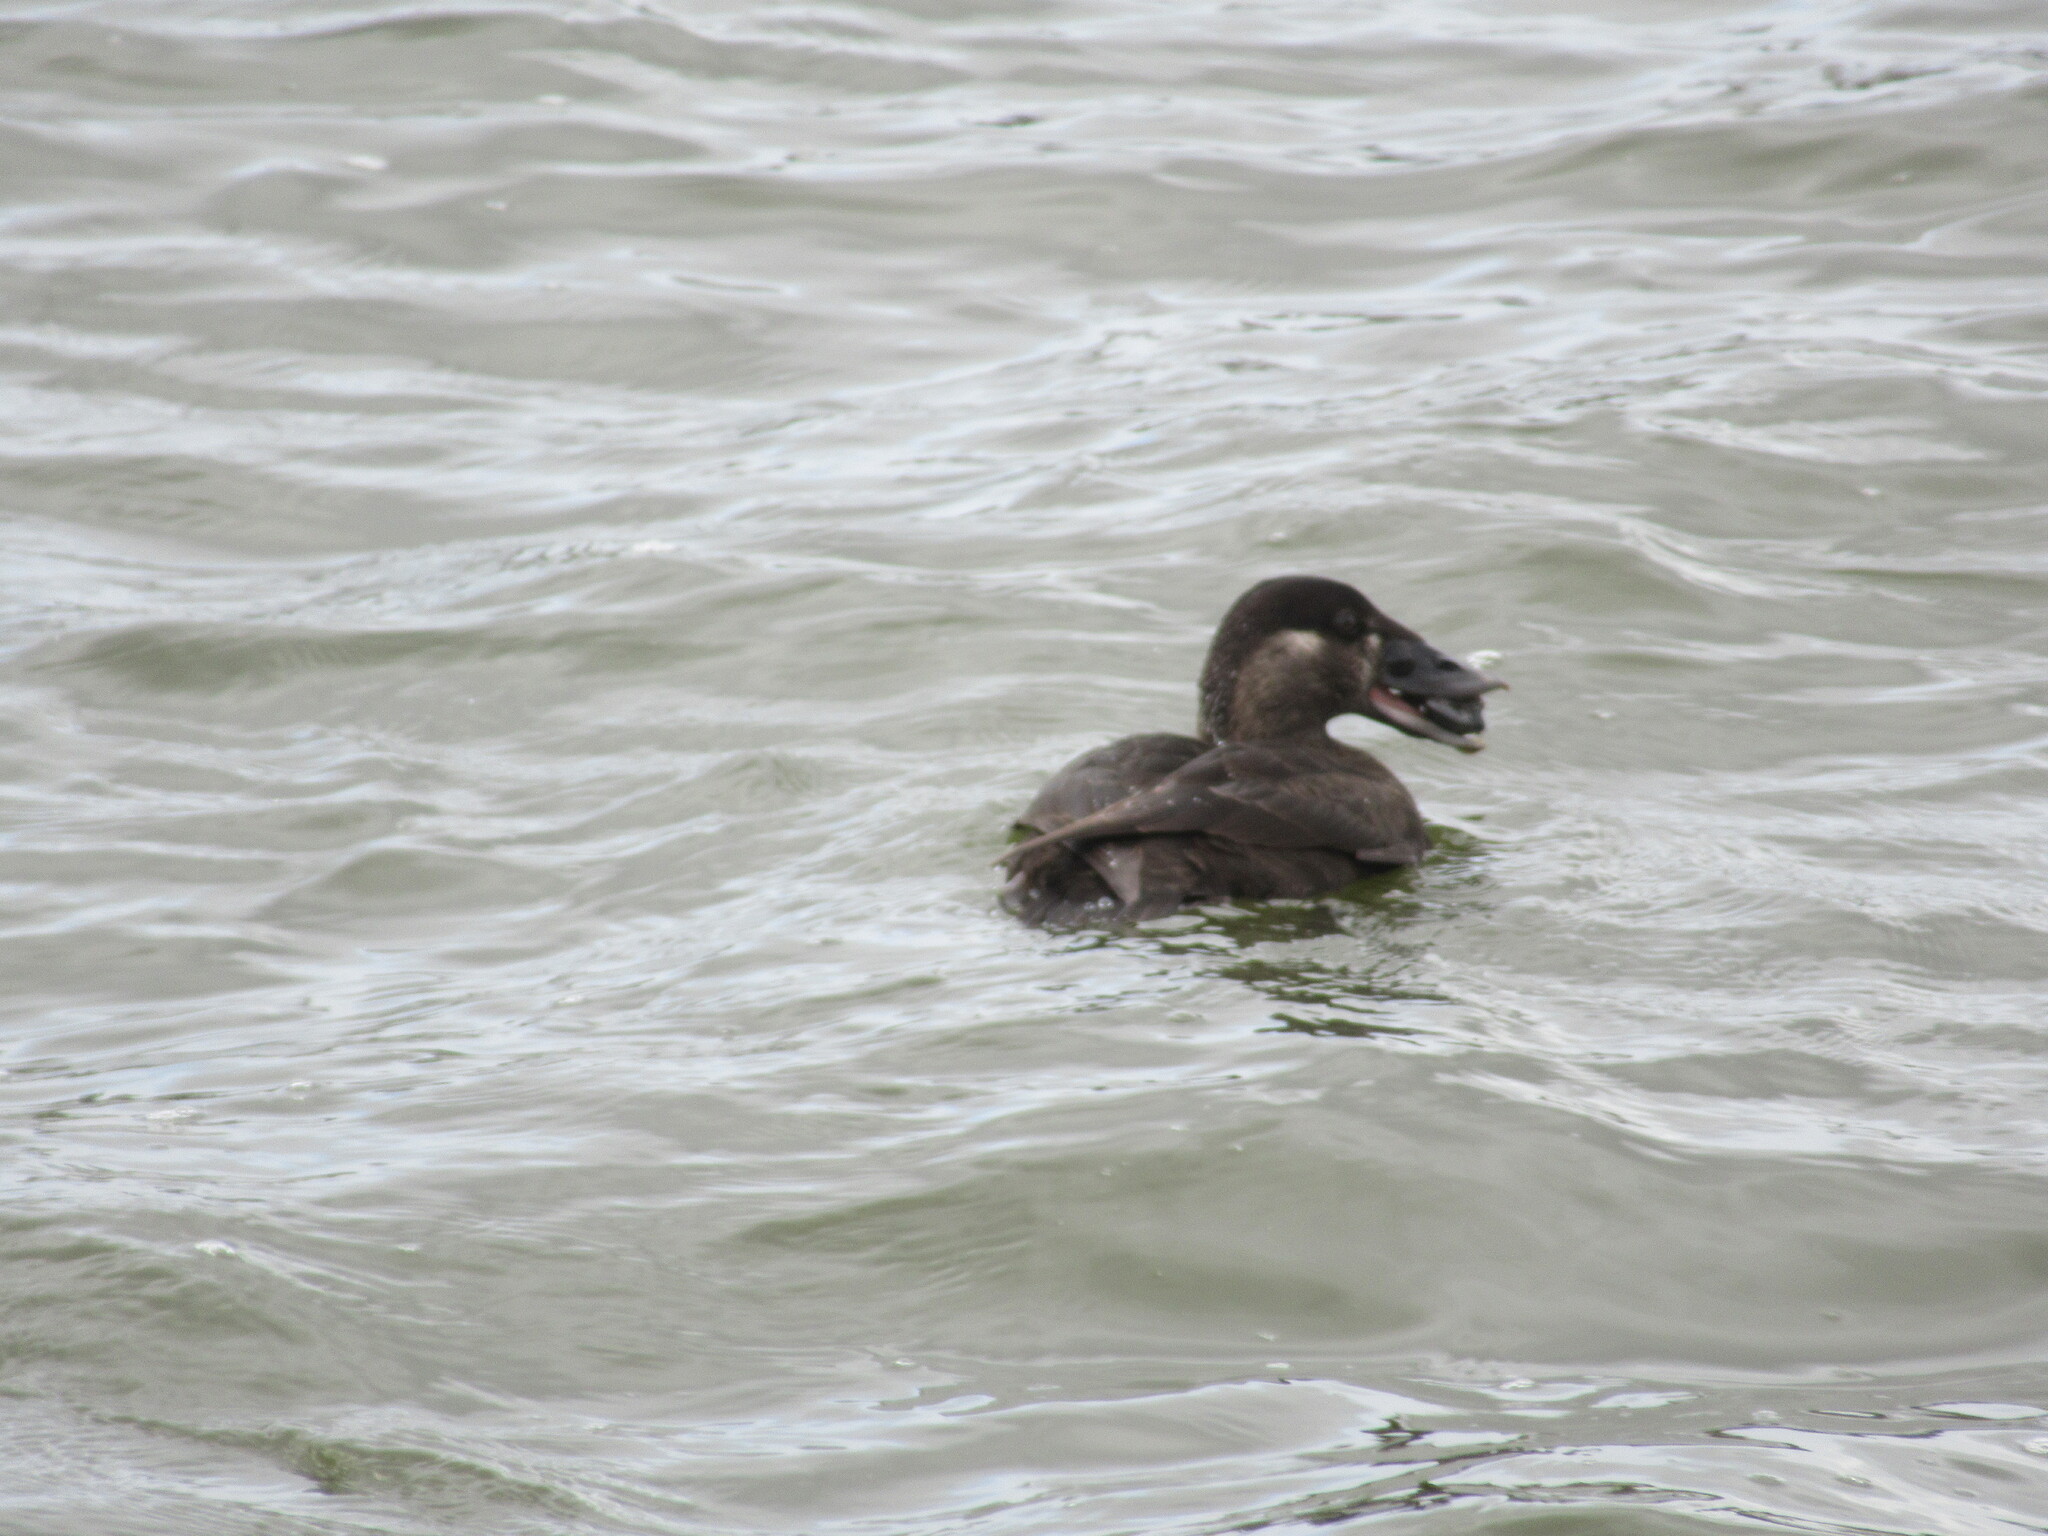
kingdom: Animalia
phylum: Chordata
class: Aves
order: Anseriformes
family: Anatidae
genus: Melanitta
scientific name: Melanitta perspicillata
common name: Surf scoter
